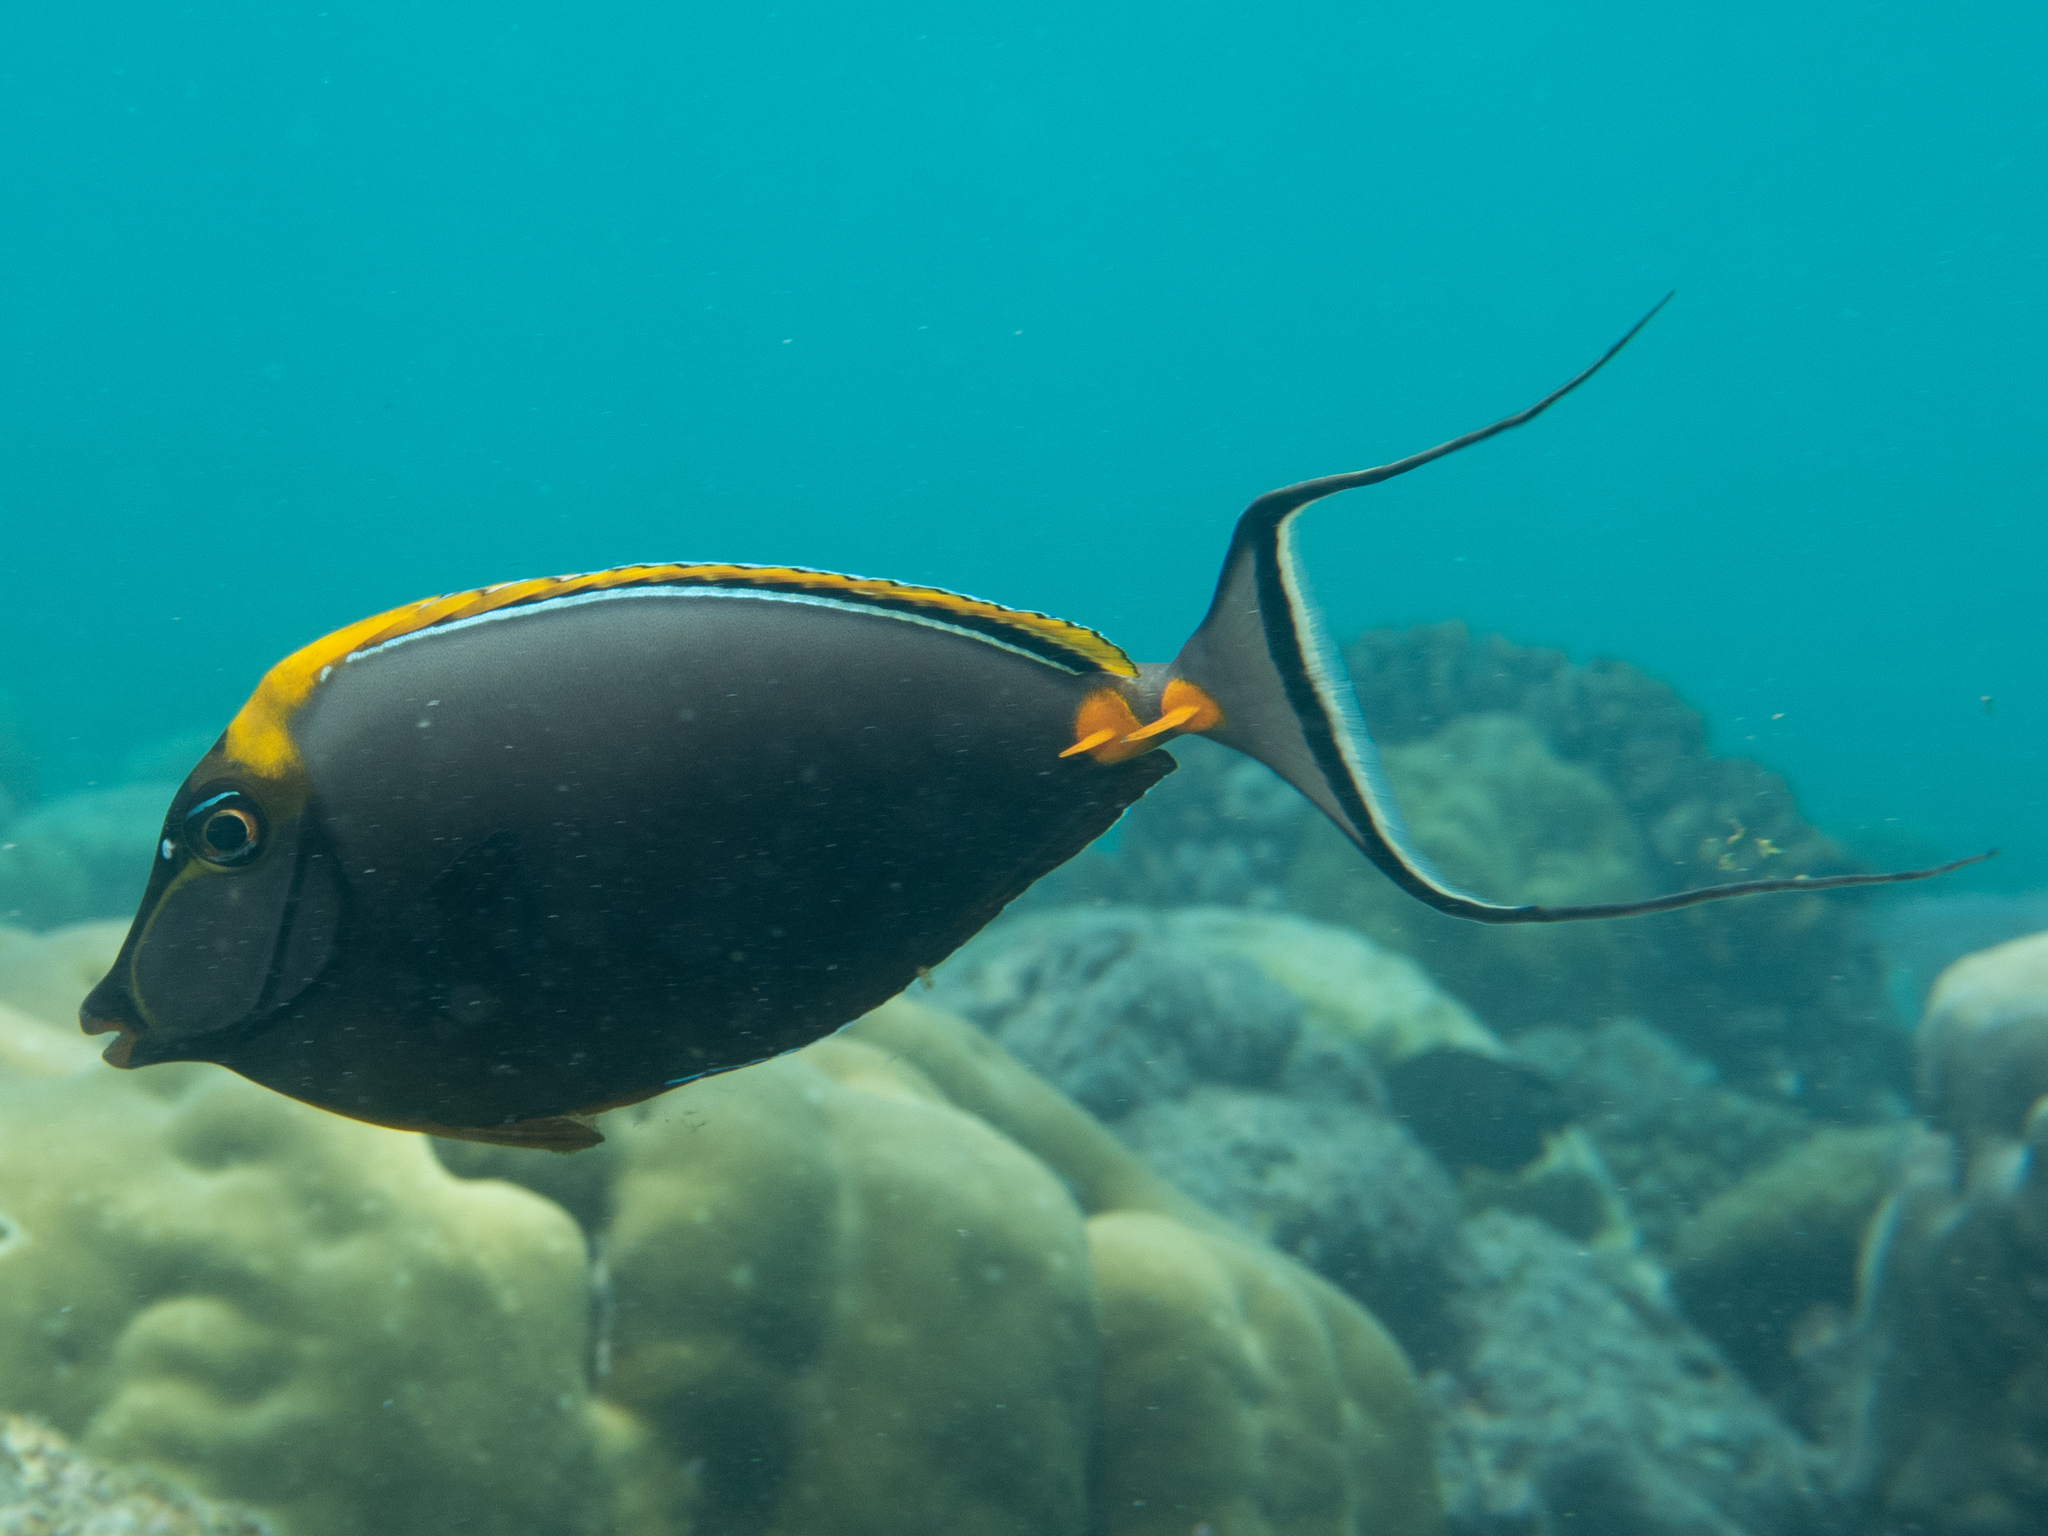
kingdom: Animalia
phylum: Chordata
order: Perciformes
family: Acanthuridae
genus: Naso
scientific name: Naso elegans
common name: Orangespine unicornfish
